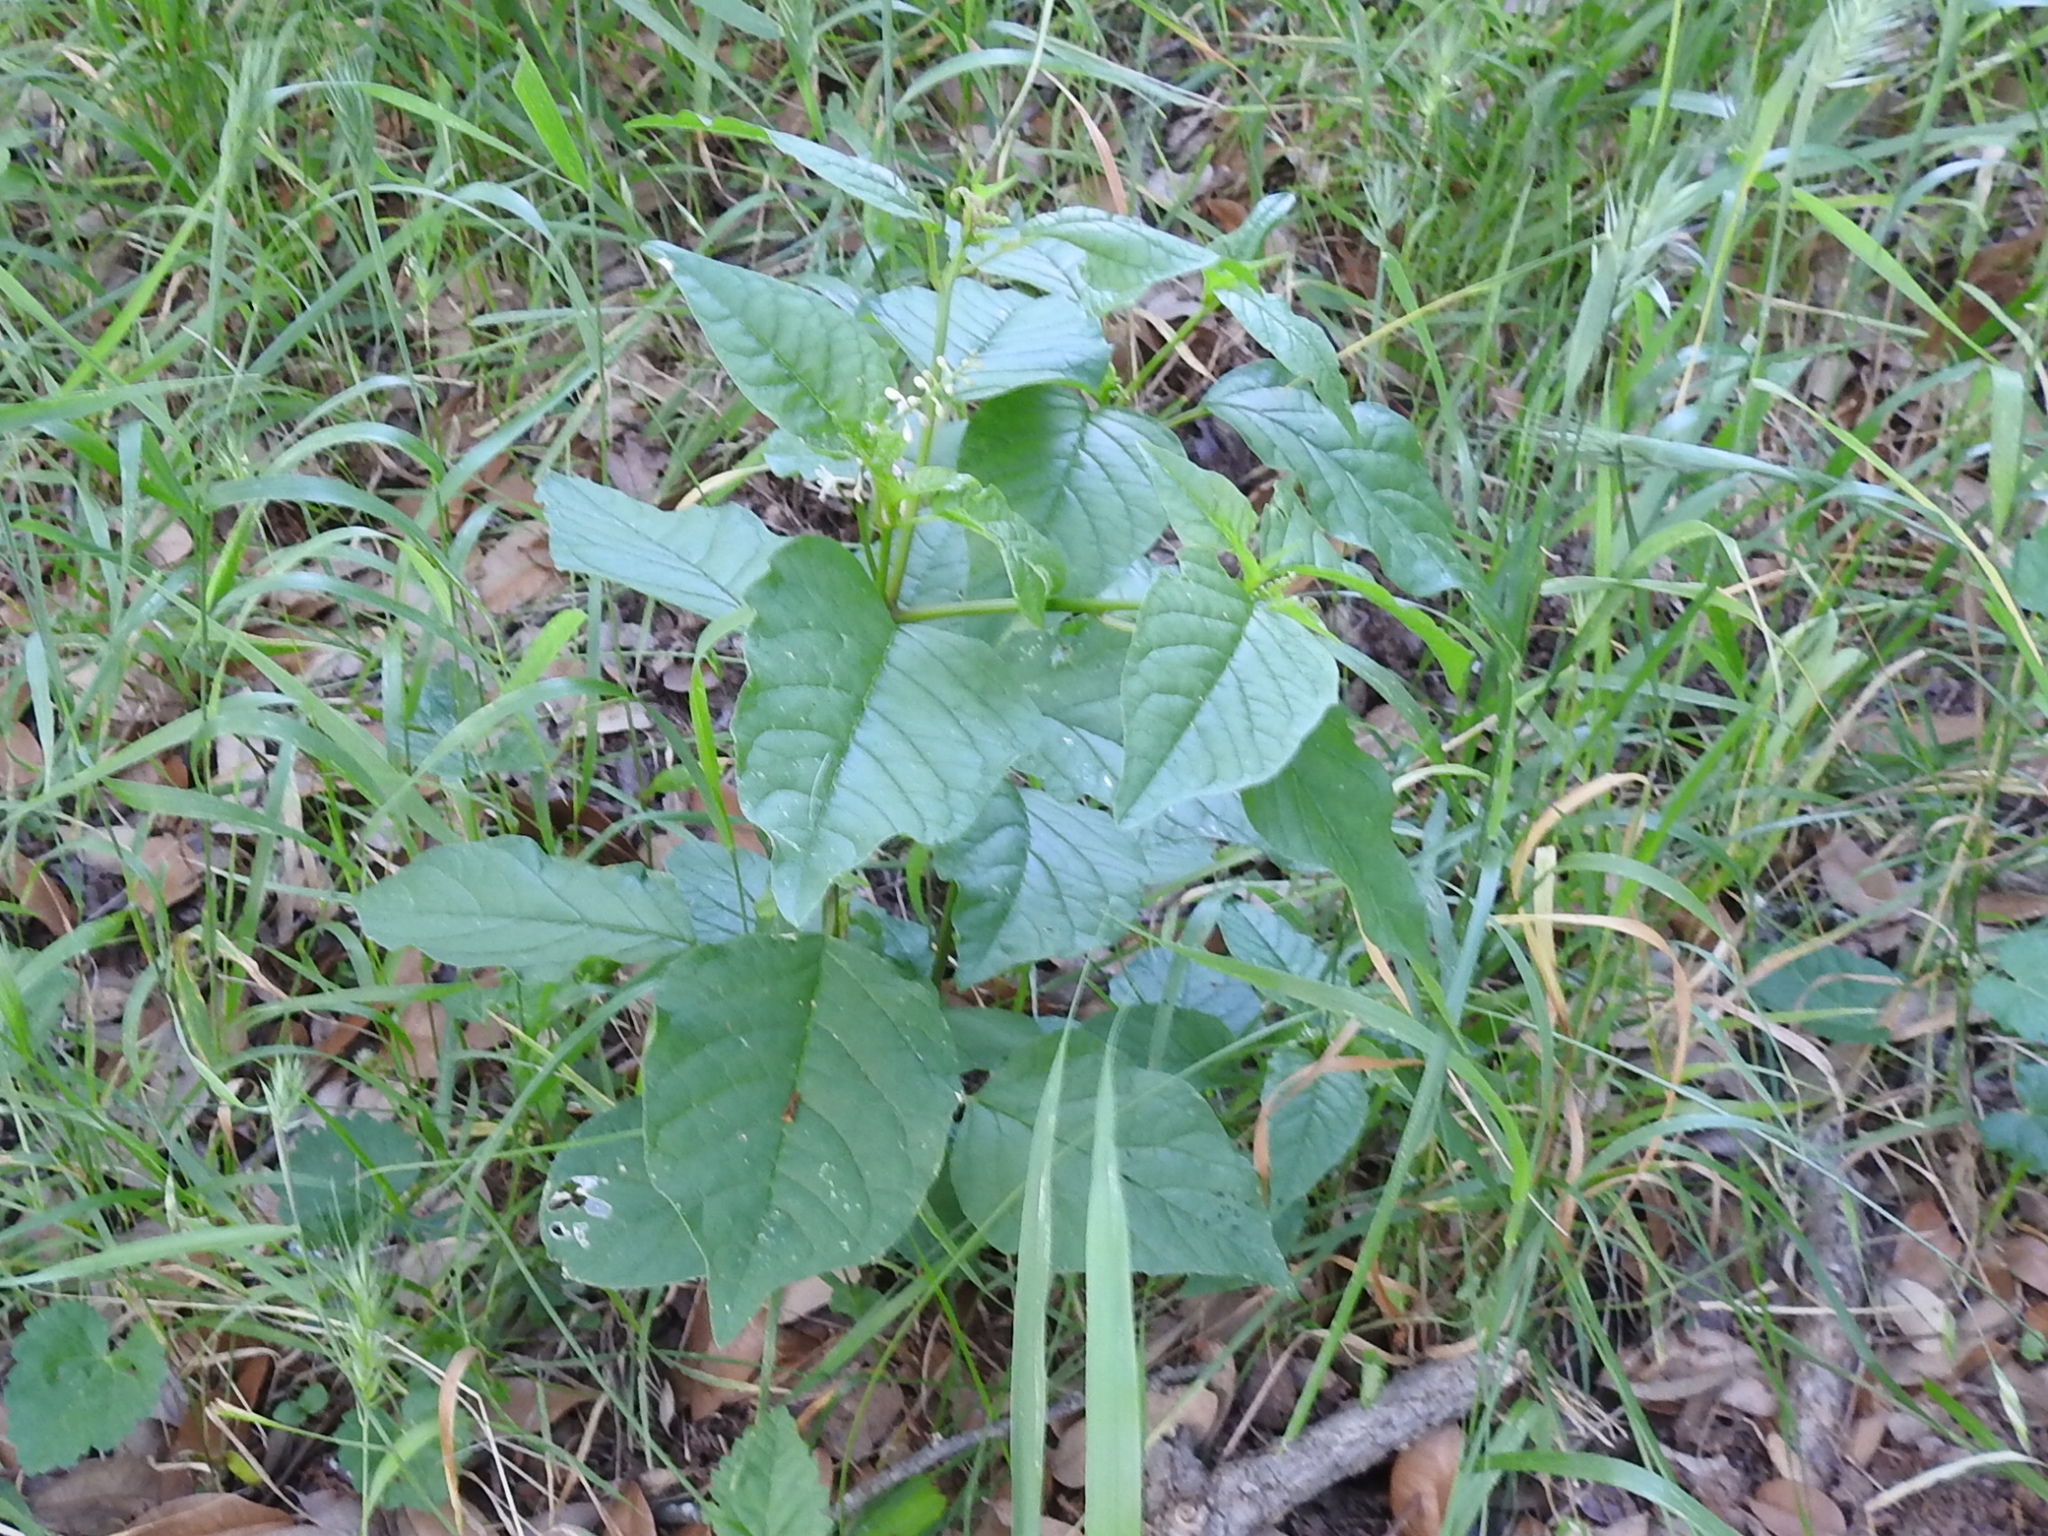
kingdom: Plantae
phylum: Tracheophyta
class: Magnoliopsida
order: Caryophyllales
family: Phytolaccaceae
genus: Rivina
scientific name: Rivina humilis
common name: Rougeplant
